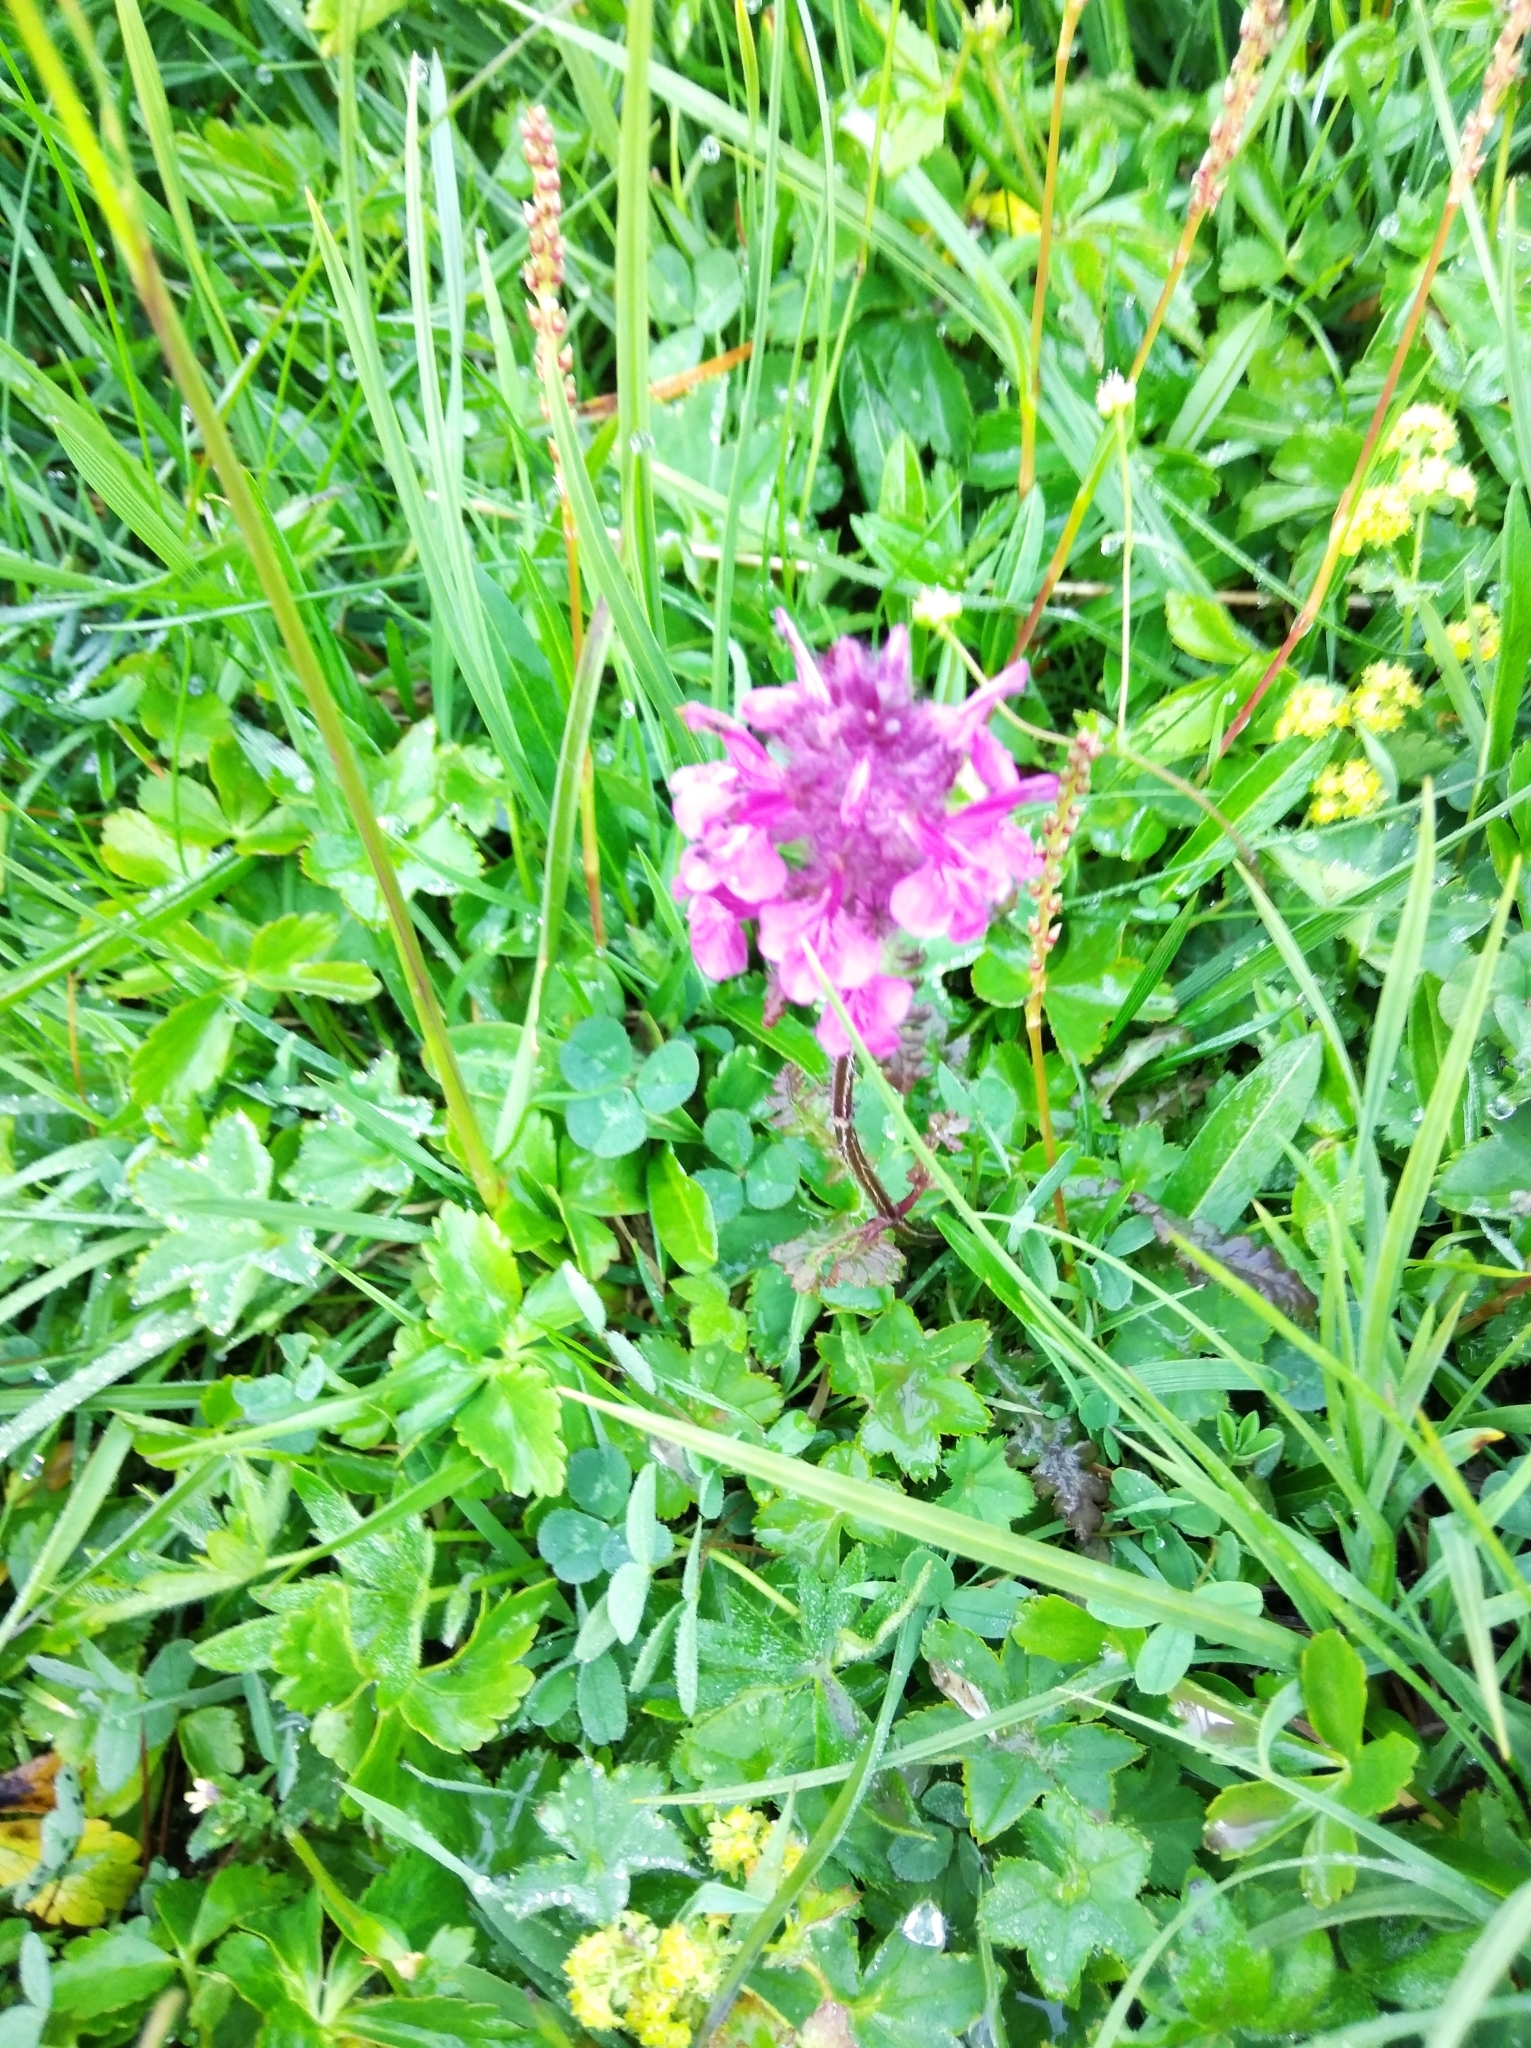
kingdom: Plantae
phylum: Tracheophyta
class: Magnoliopsida
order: Lamiales
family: Orobanchaceae
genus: Pedicularis
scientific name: Pedicularis verticillata
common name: Whorled lousewort
